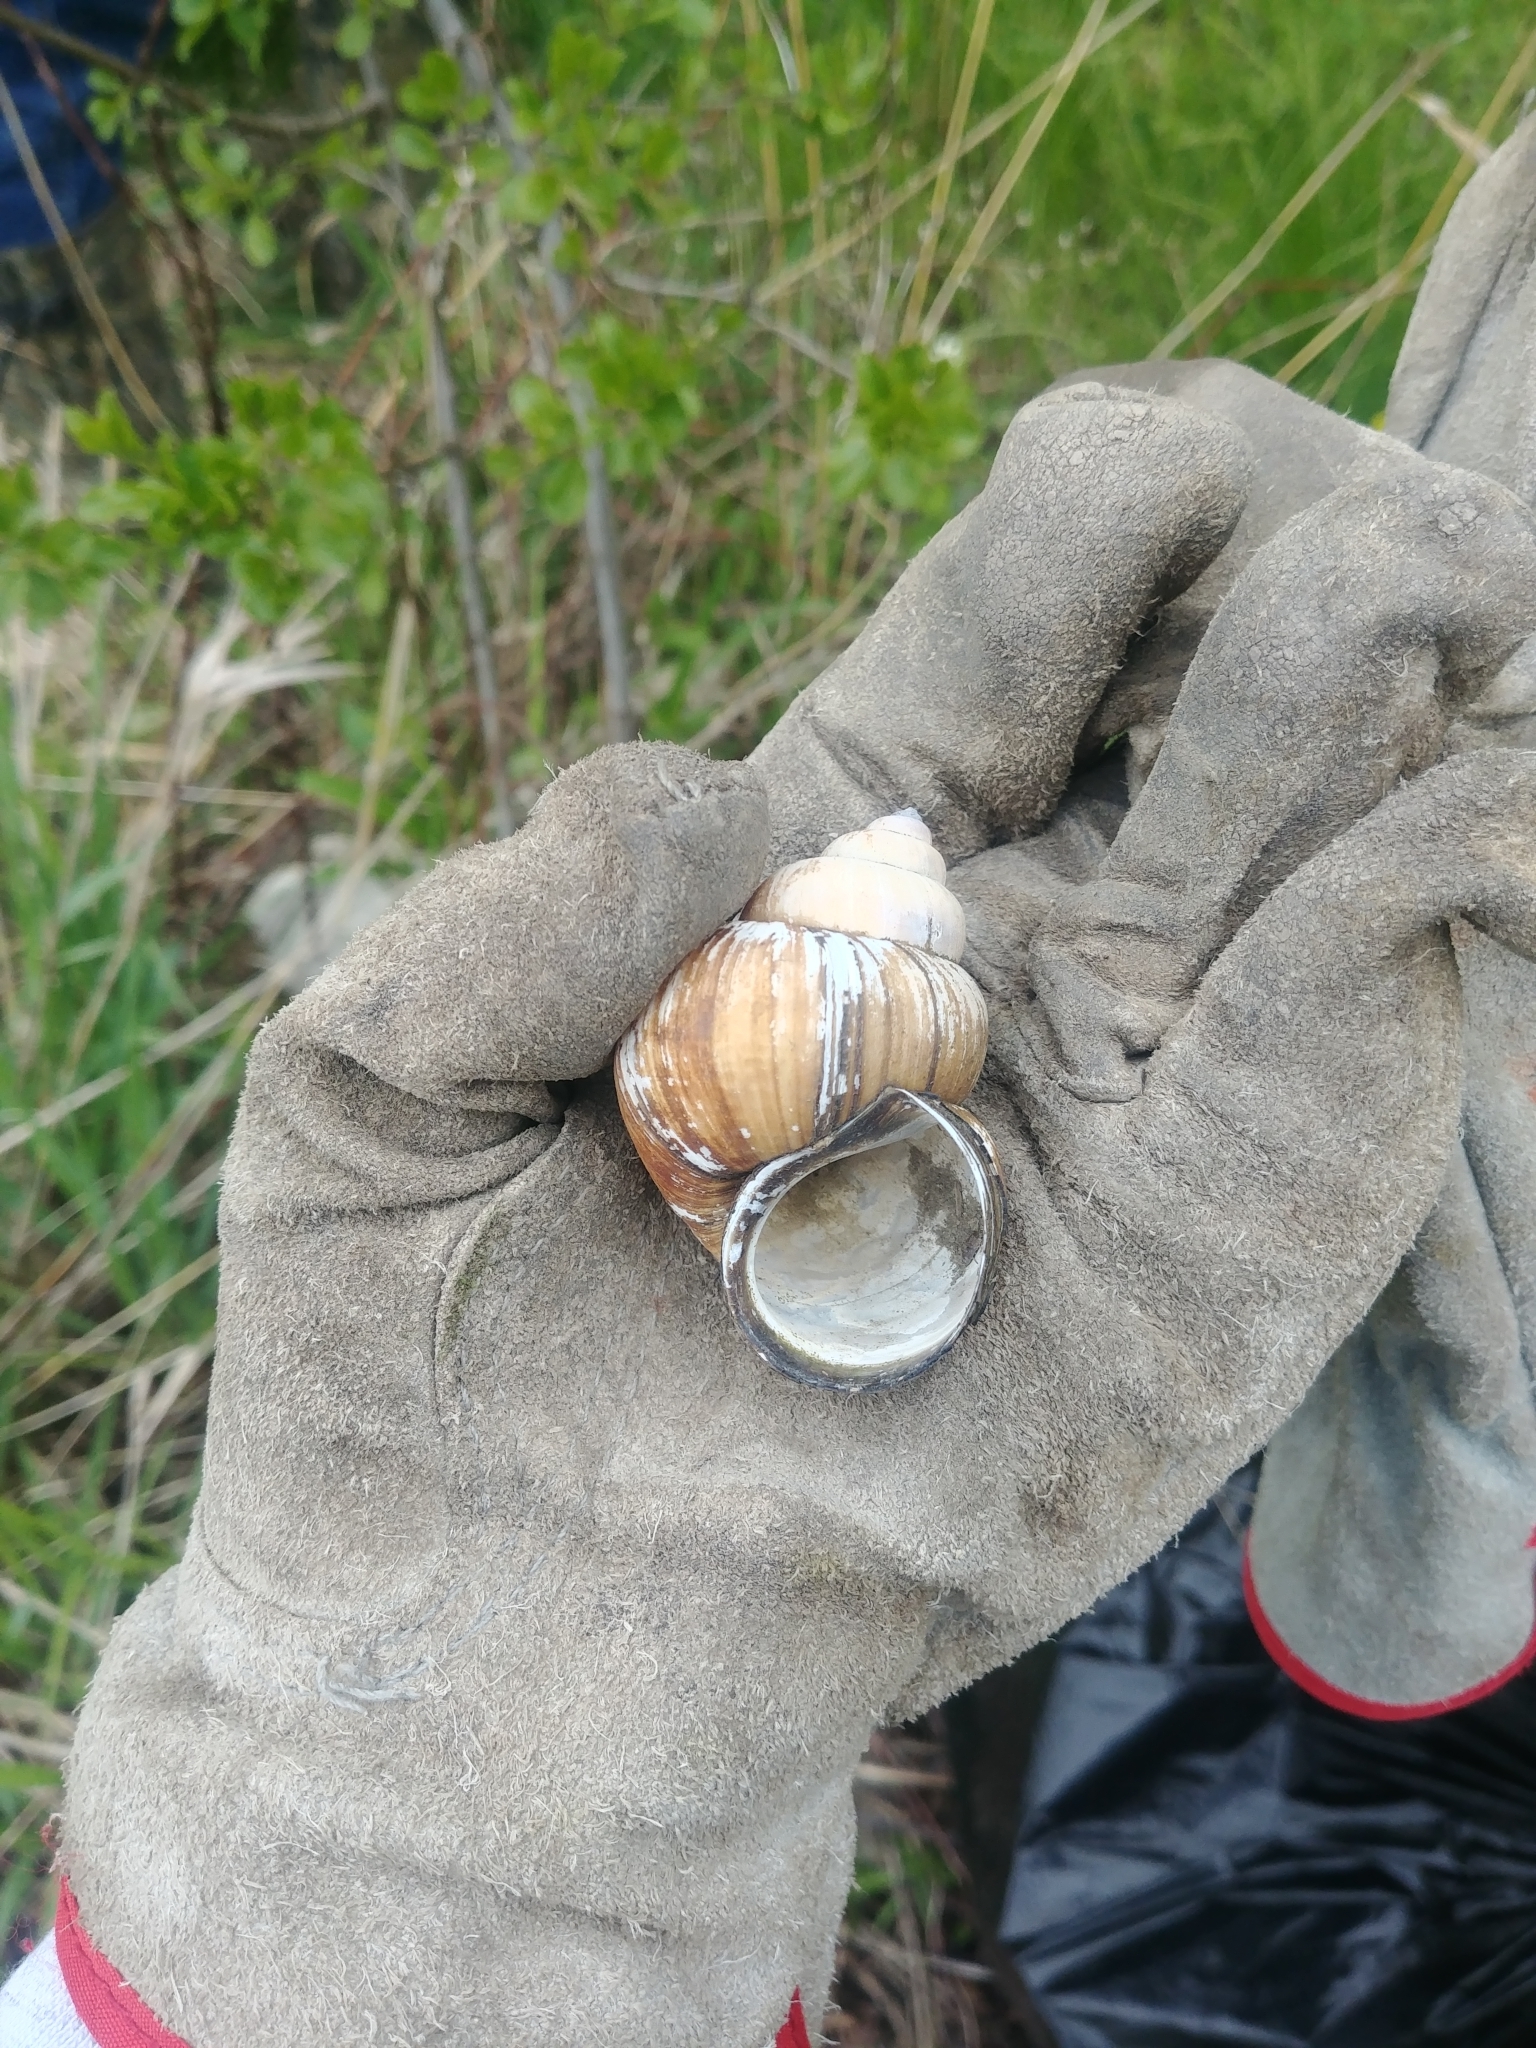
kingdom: Animalia
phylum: Mollusca
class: Gastropoda
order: Architaenioglossa
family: Viviparidae
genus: Cipangopaludina
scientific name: Cipangopaludina chinensis
